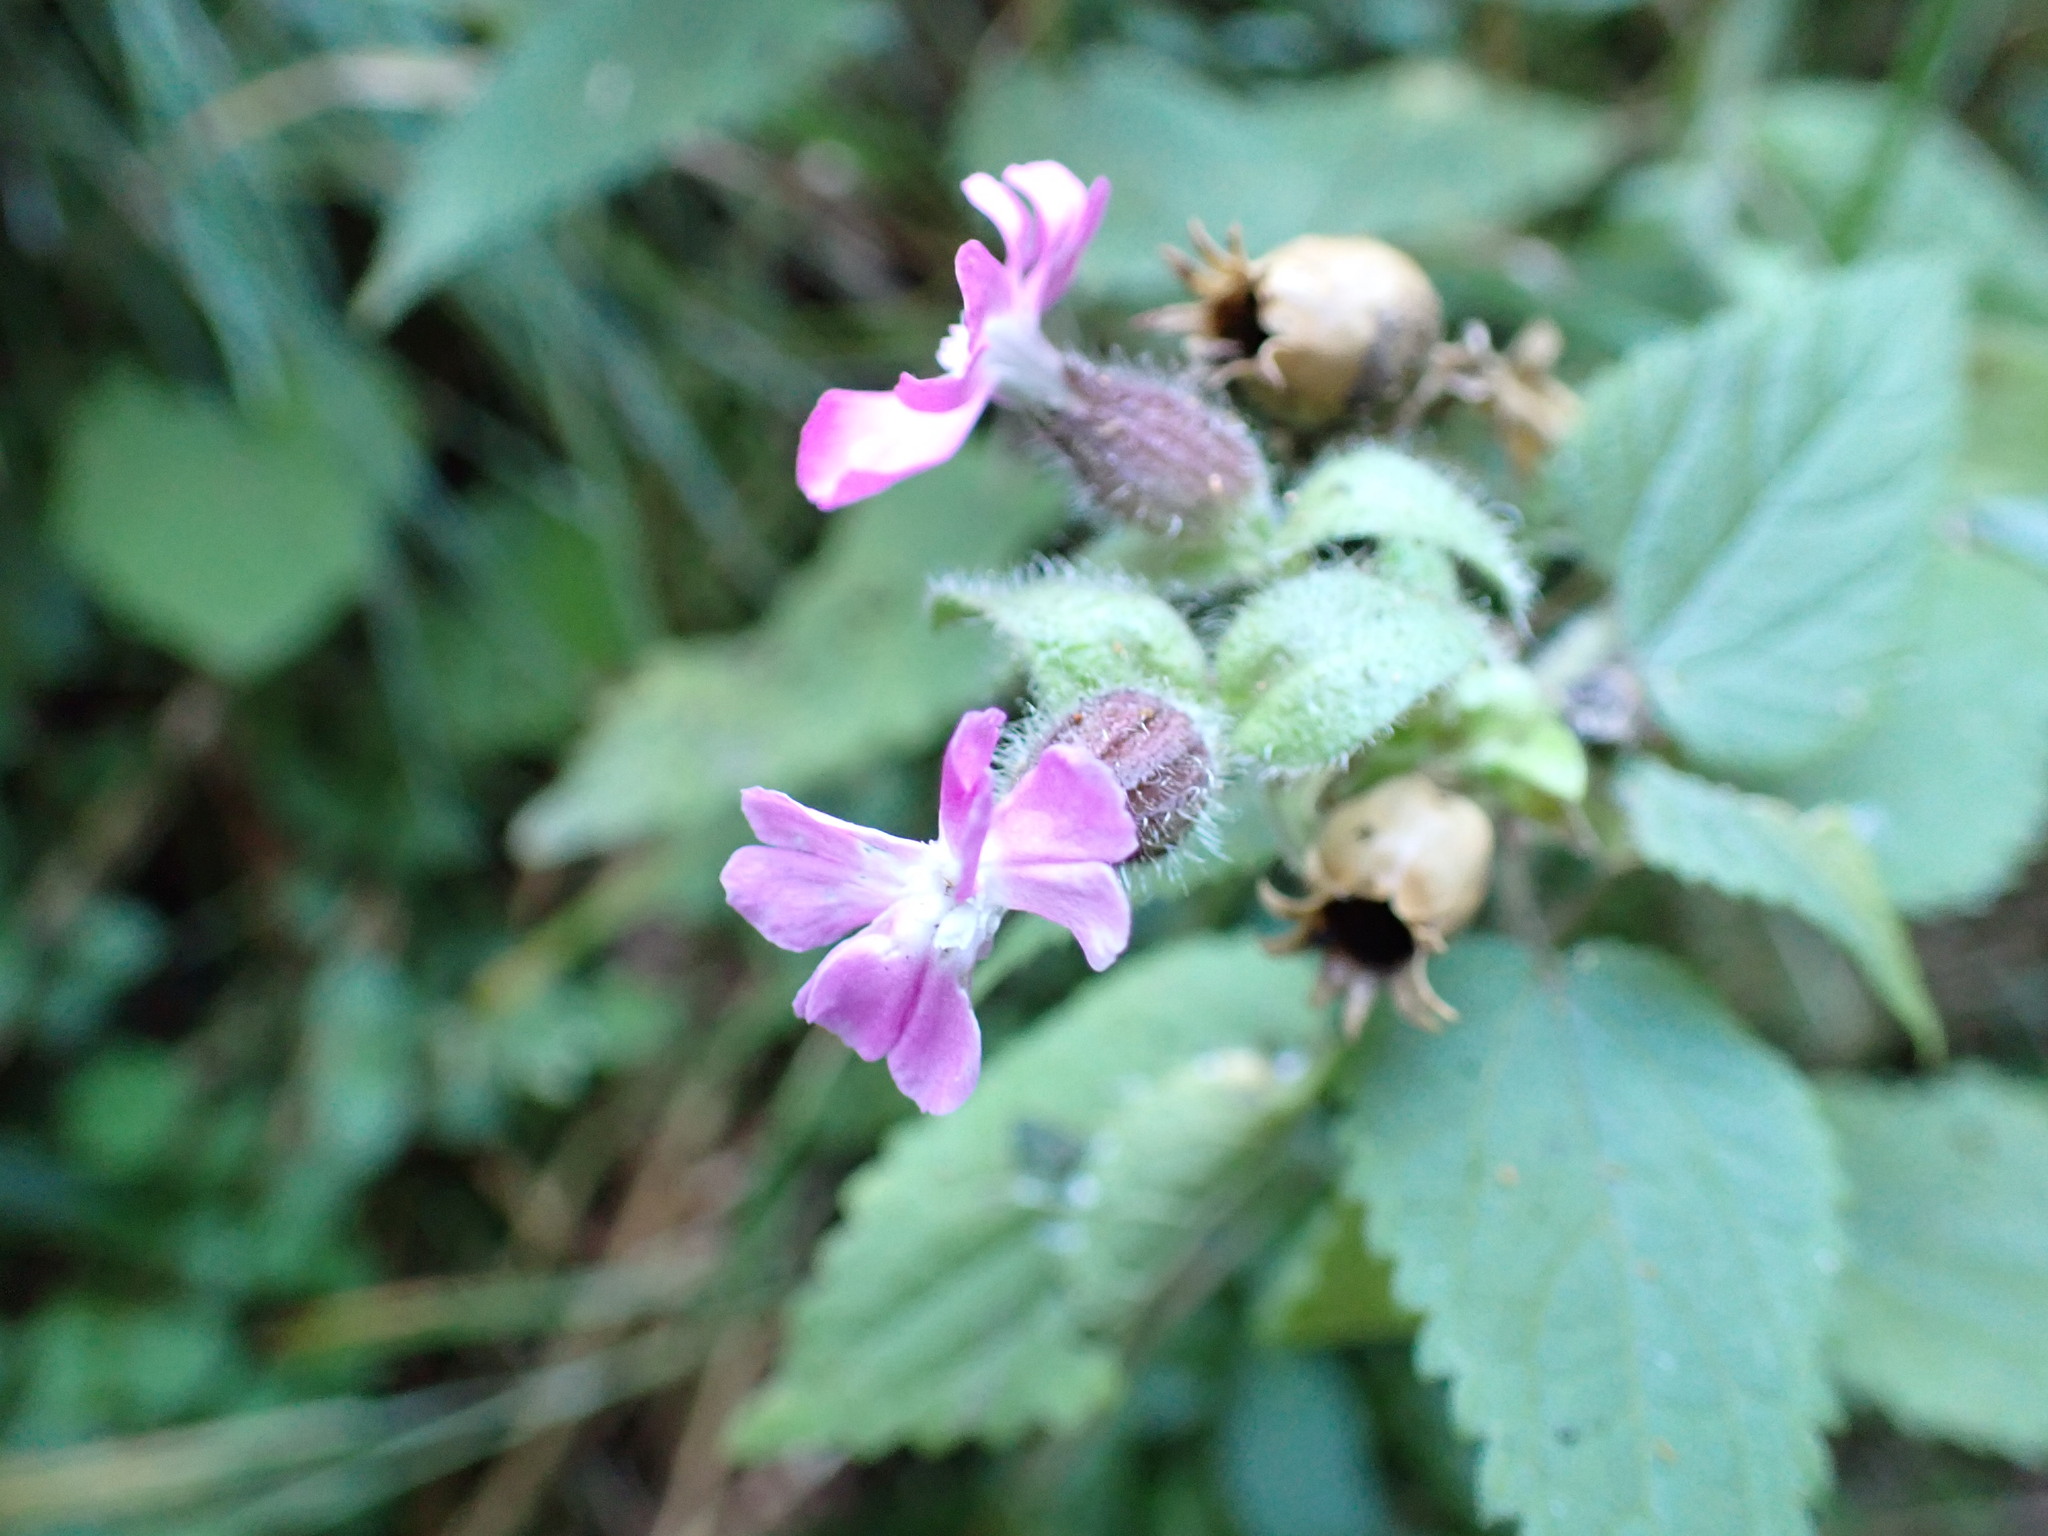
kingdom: Plantae
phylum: Tracheophyta
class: Magnoliopsida
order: Caryophyllales
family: Caryophyllaceae
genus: Silene
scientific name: Silene dioica
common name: Red campion
